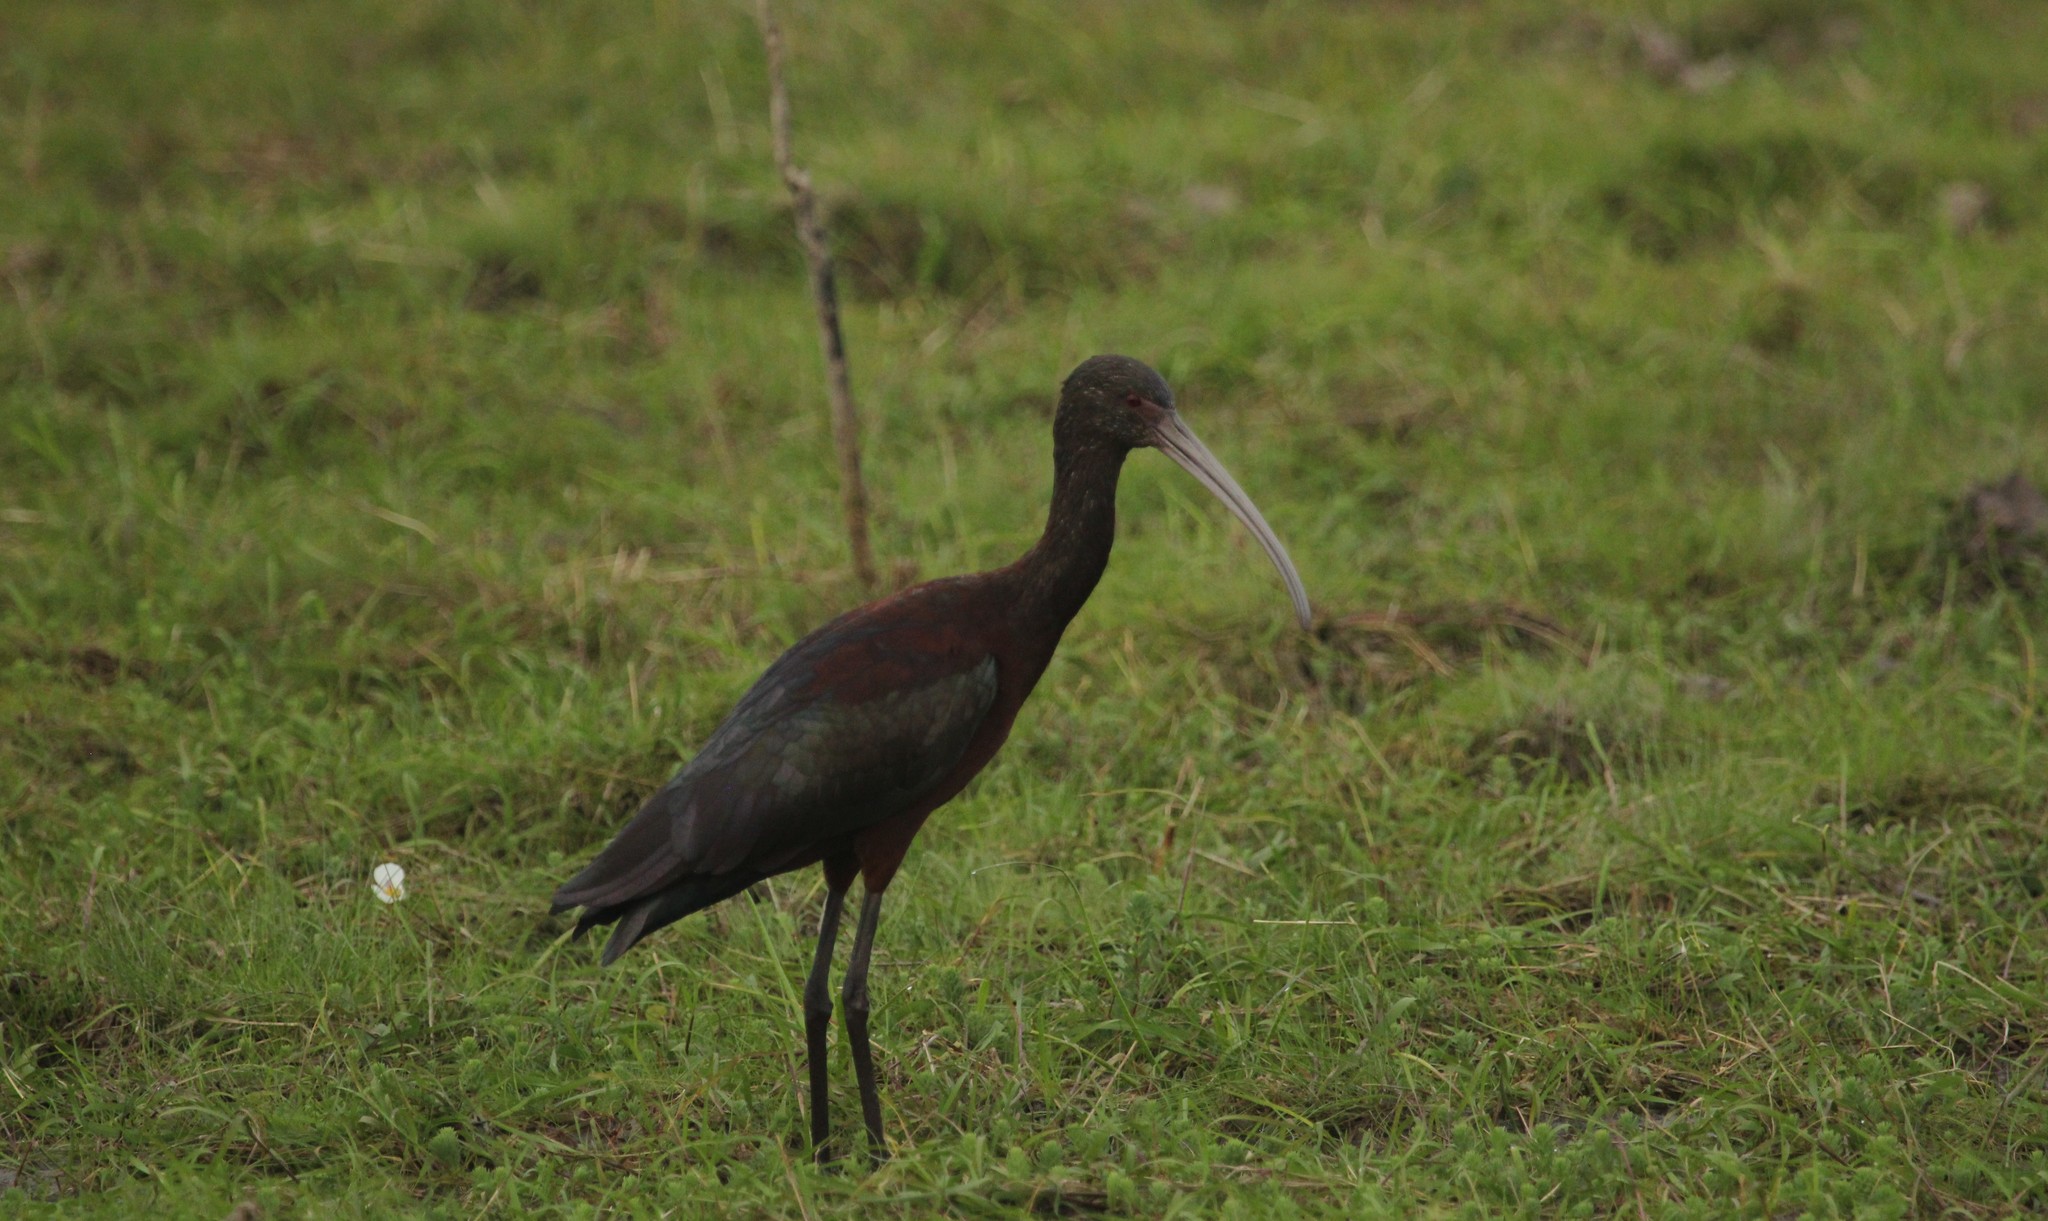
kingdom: Animalia
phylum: Chordata
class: Aves
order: Pelecaniformes
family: Threskiornithidae
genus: Plegadis
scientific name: Plegadis chihi
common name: White-faced ibis
